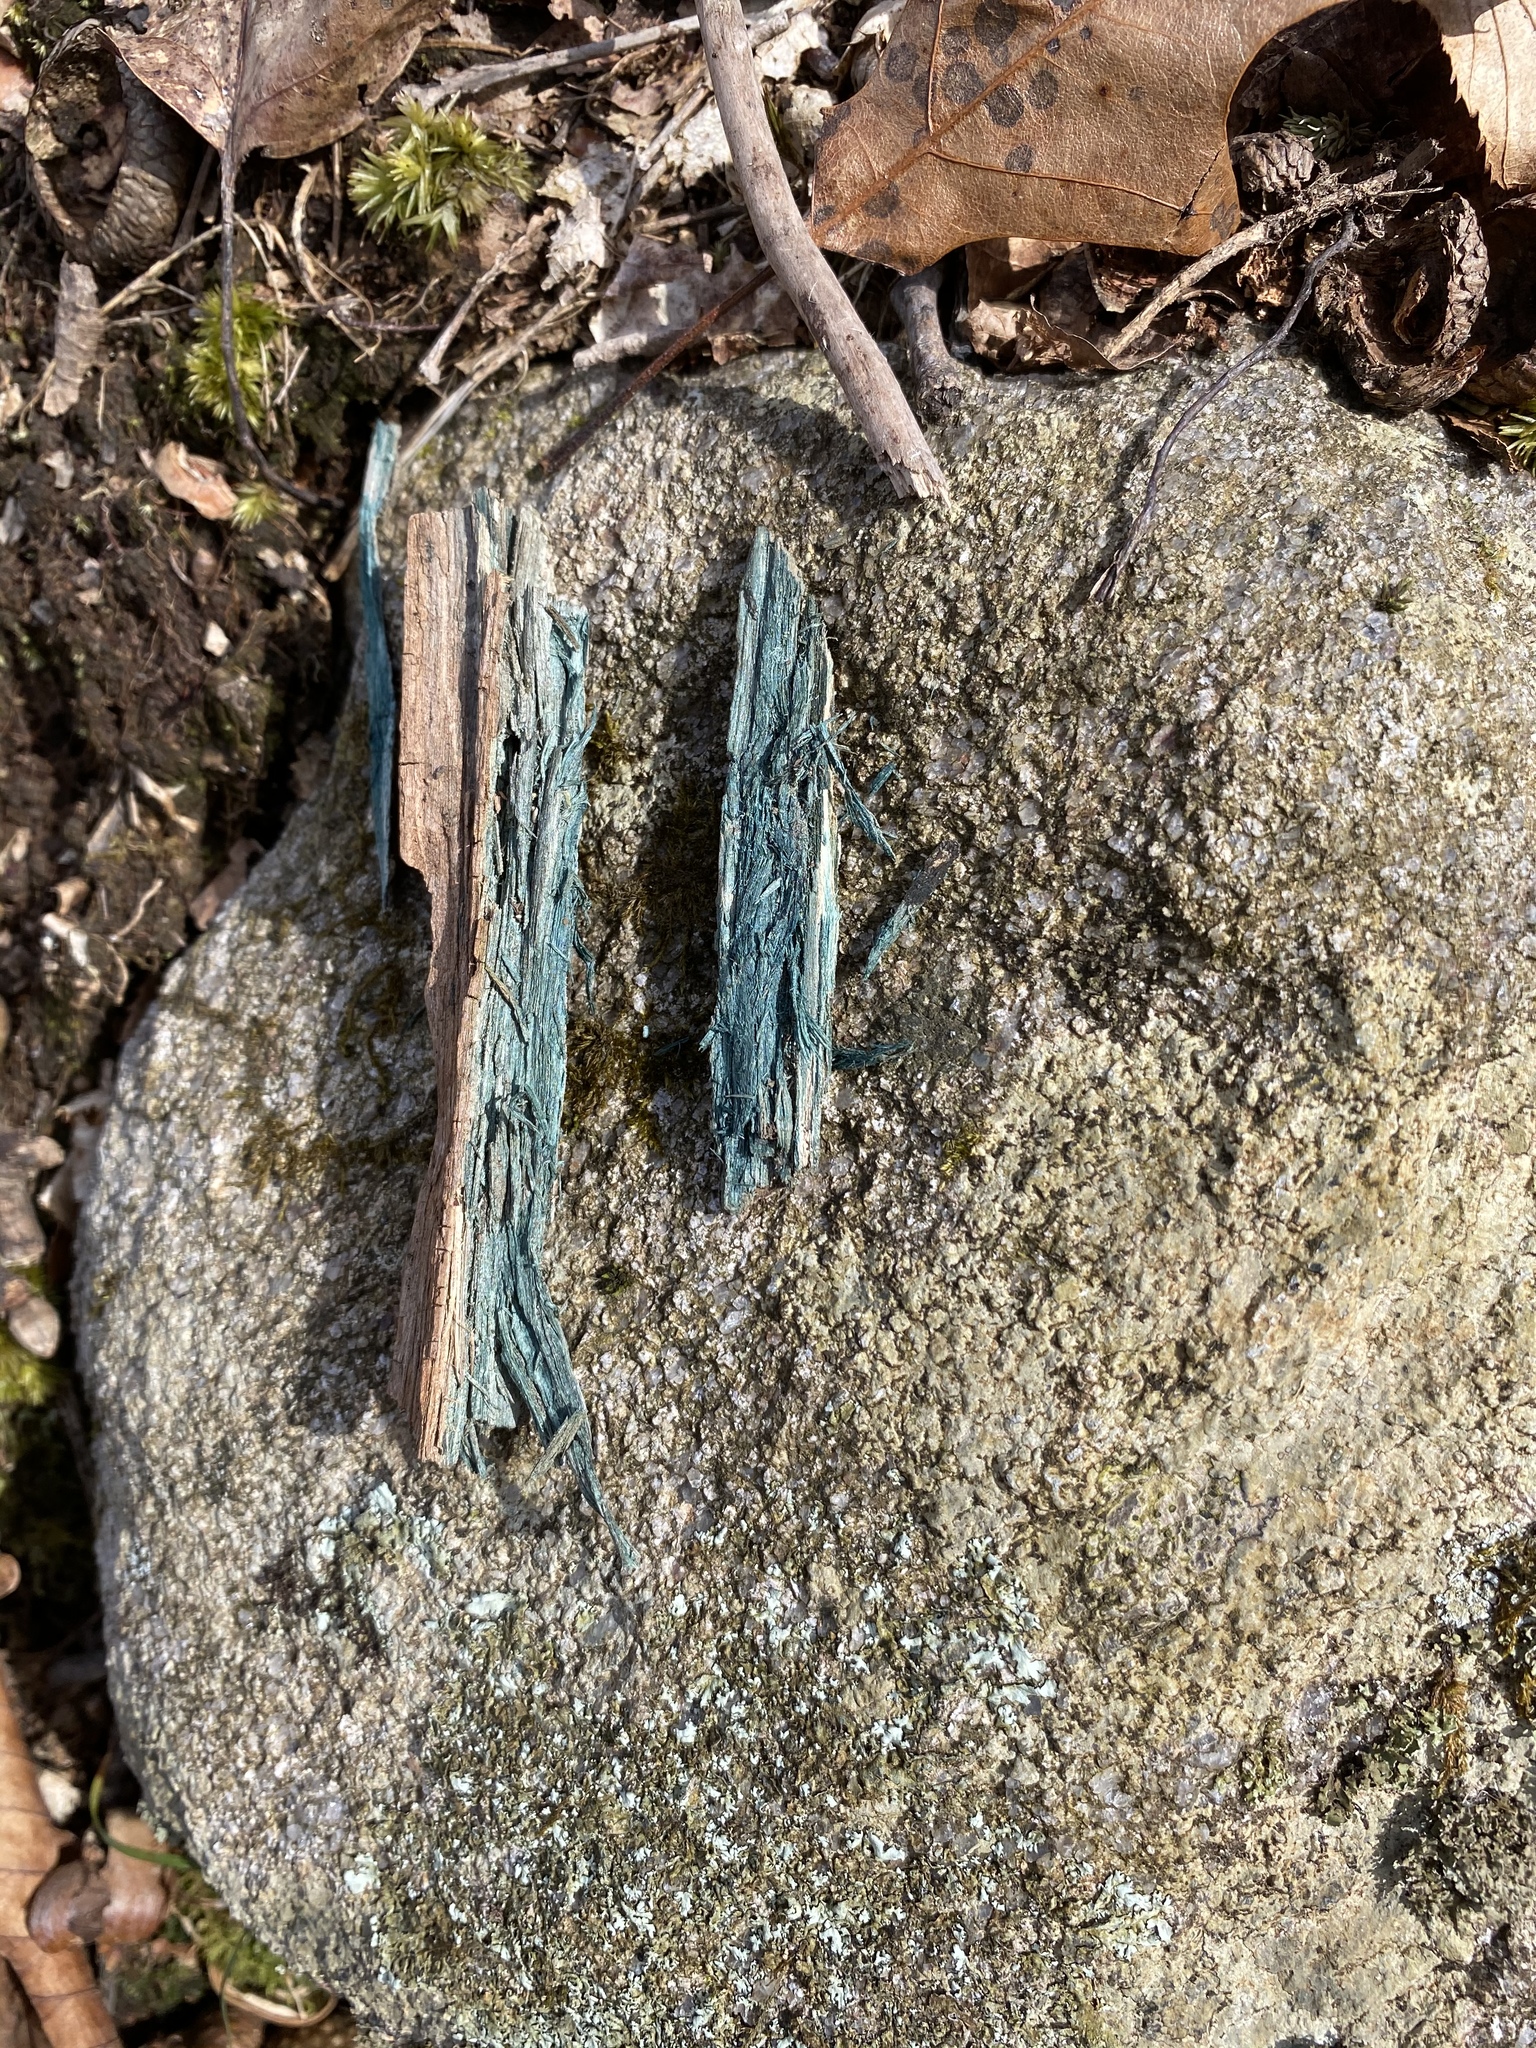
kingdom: Fungi
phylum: Ascomycota
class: Leotiomycetes
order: Helotiales
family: Chlorociboriaceae
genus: Chlorociboria
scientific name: Chlorociboria
